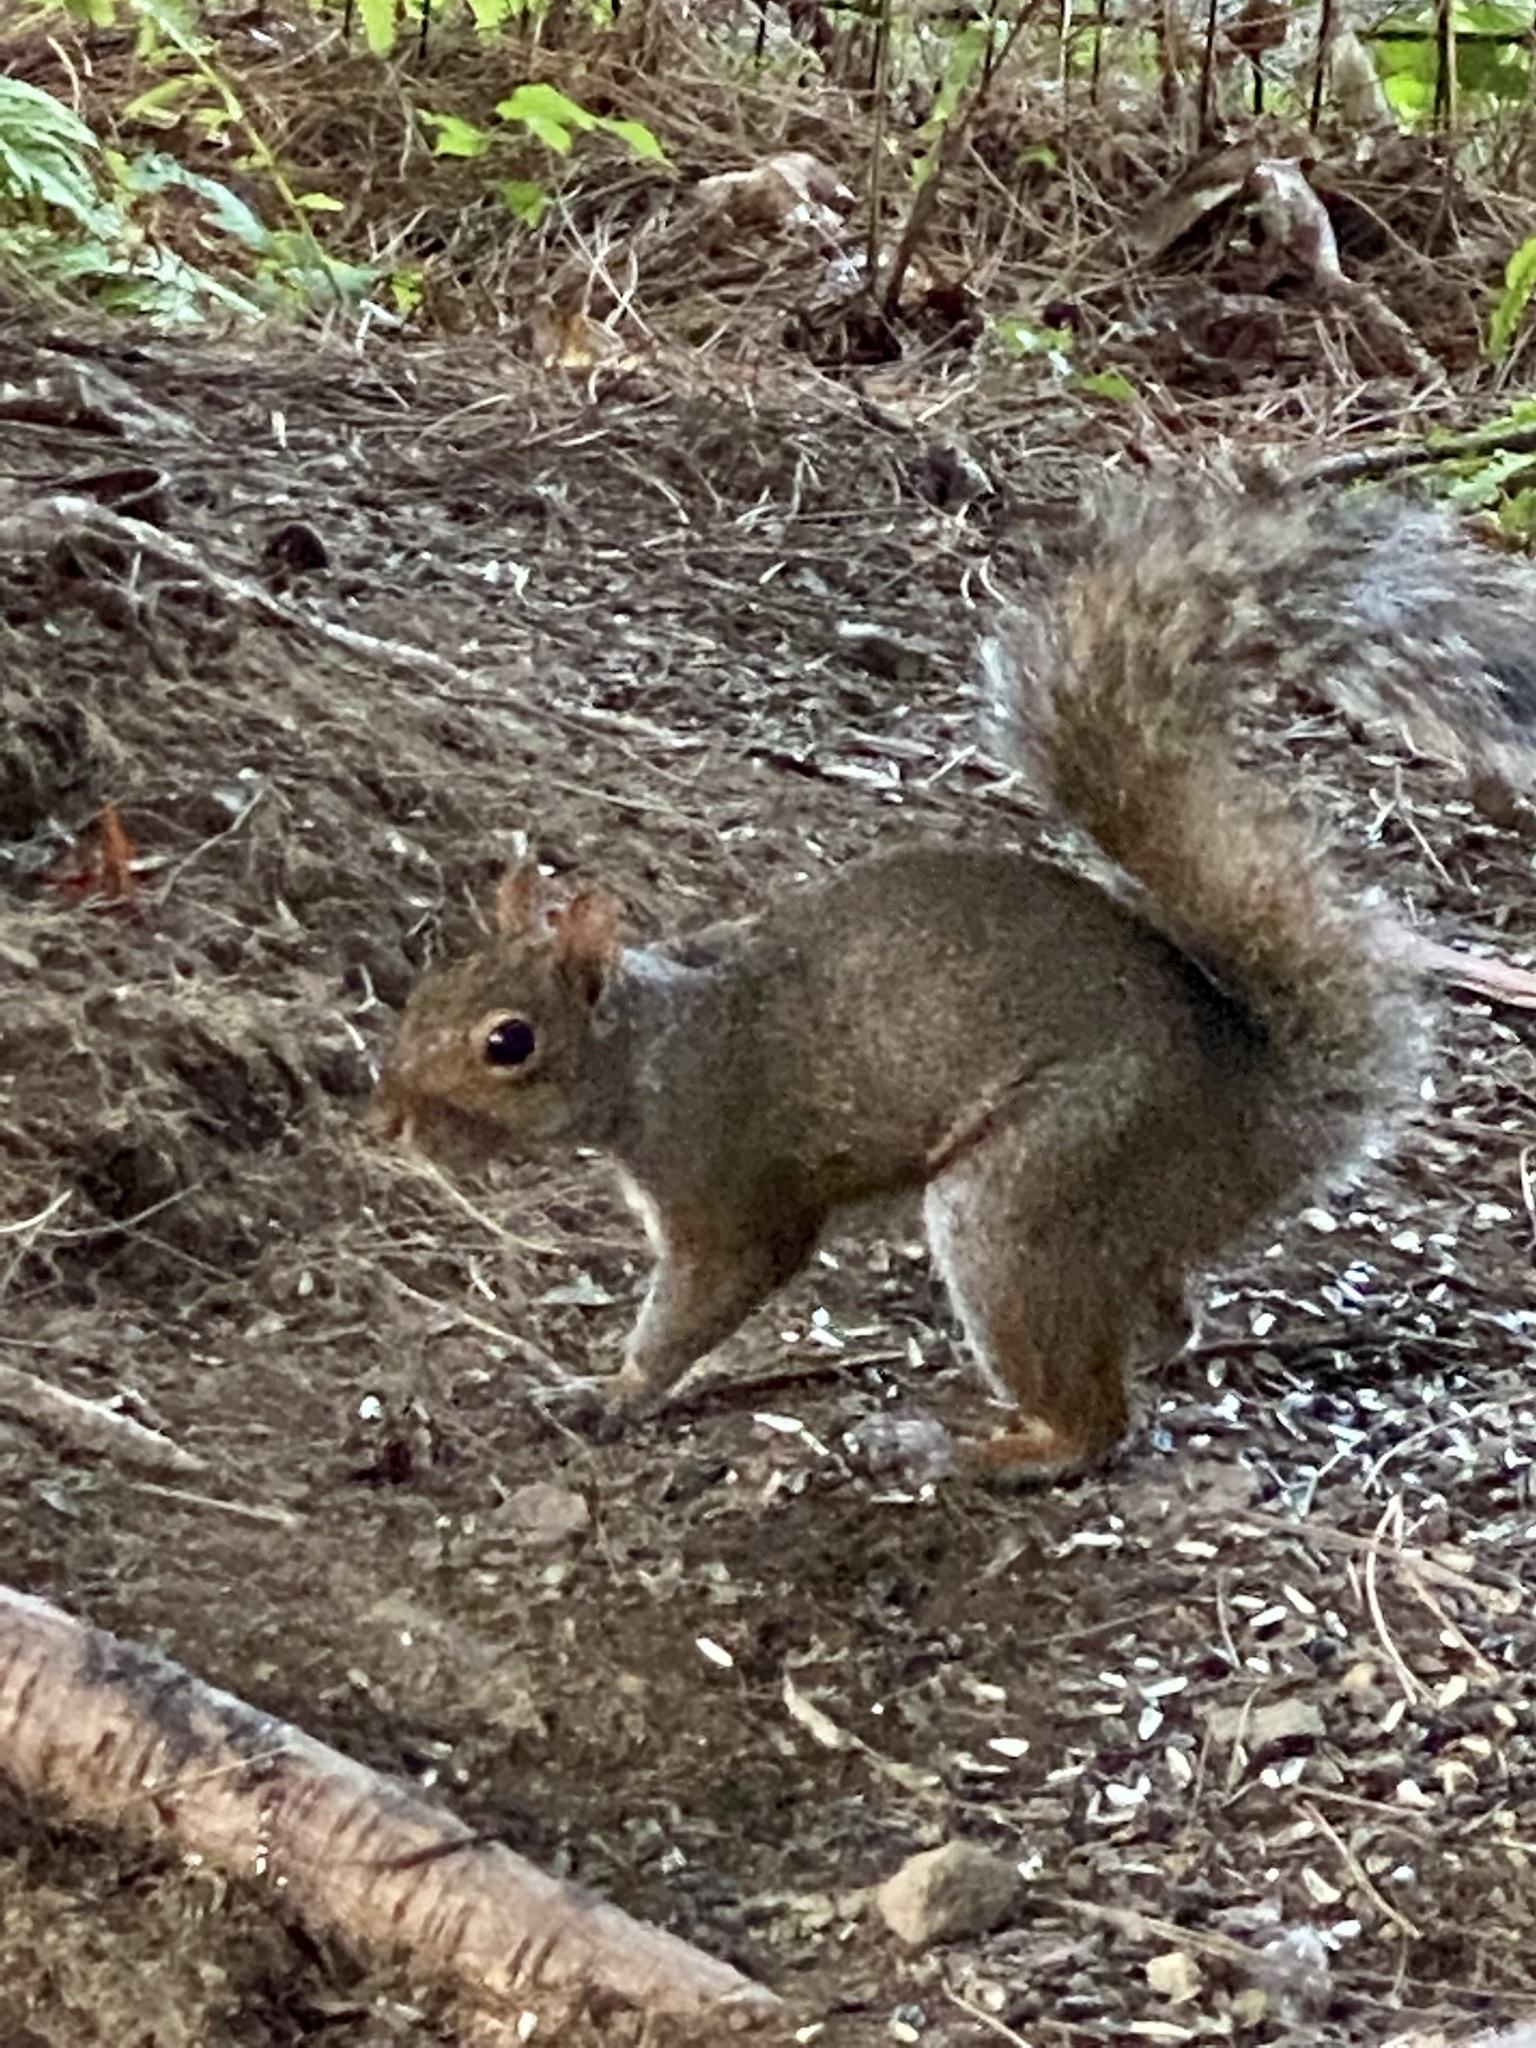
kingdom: Animalia
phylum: Chordata
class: Mammalia
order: Rodentia
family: Sciuridae
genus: Sciurus
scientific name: Sciurus carolinensis
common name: Eastern gray squirrel
